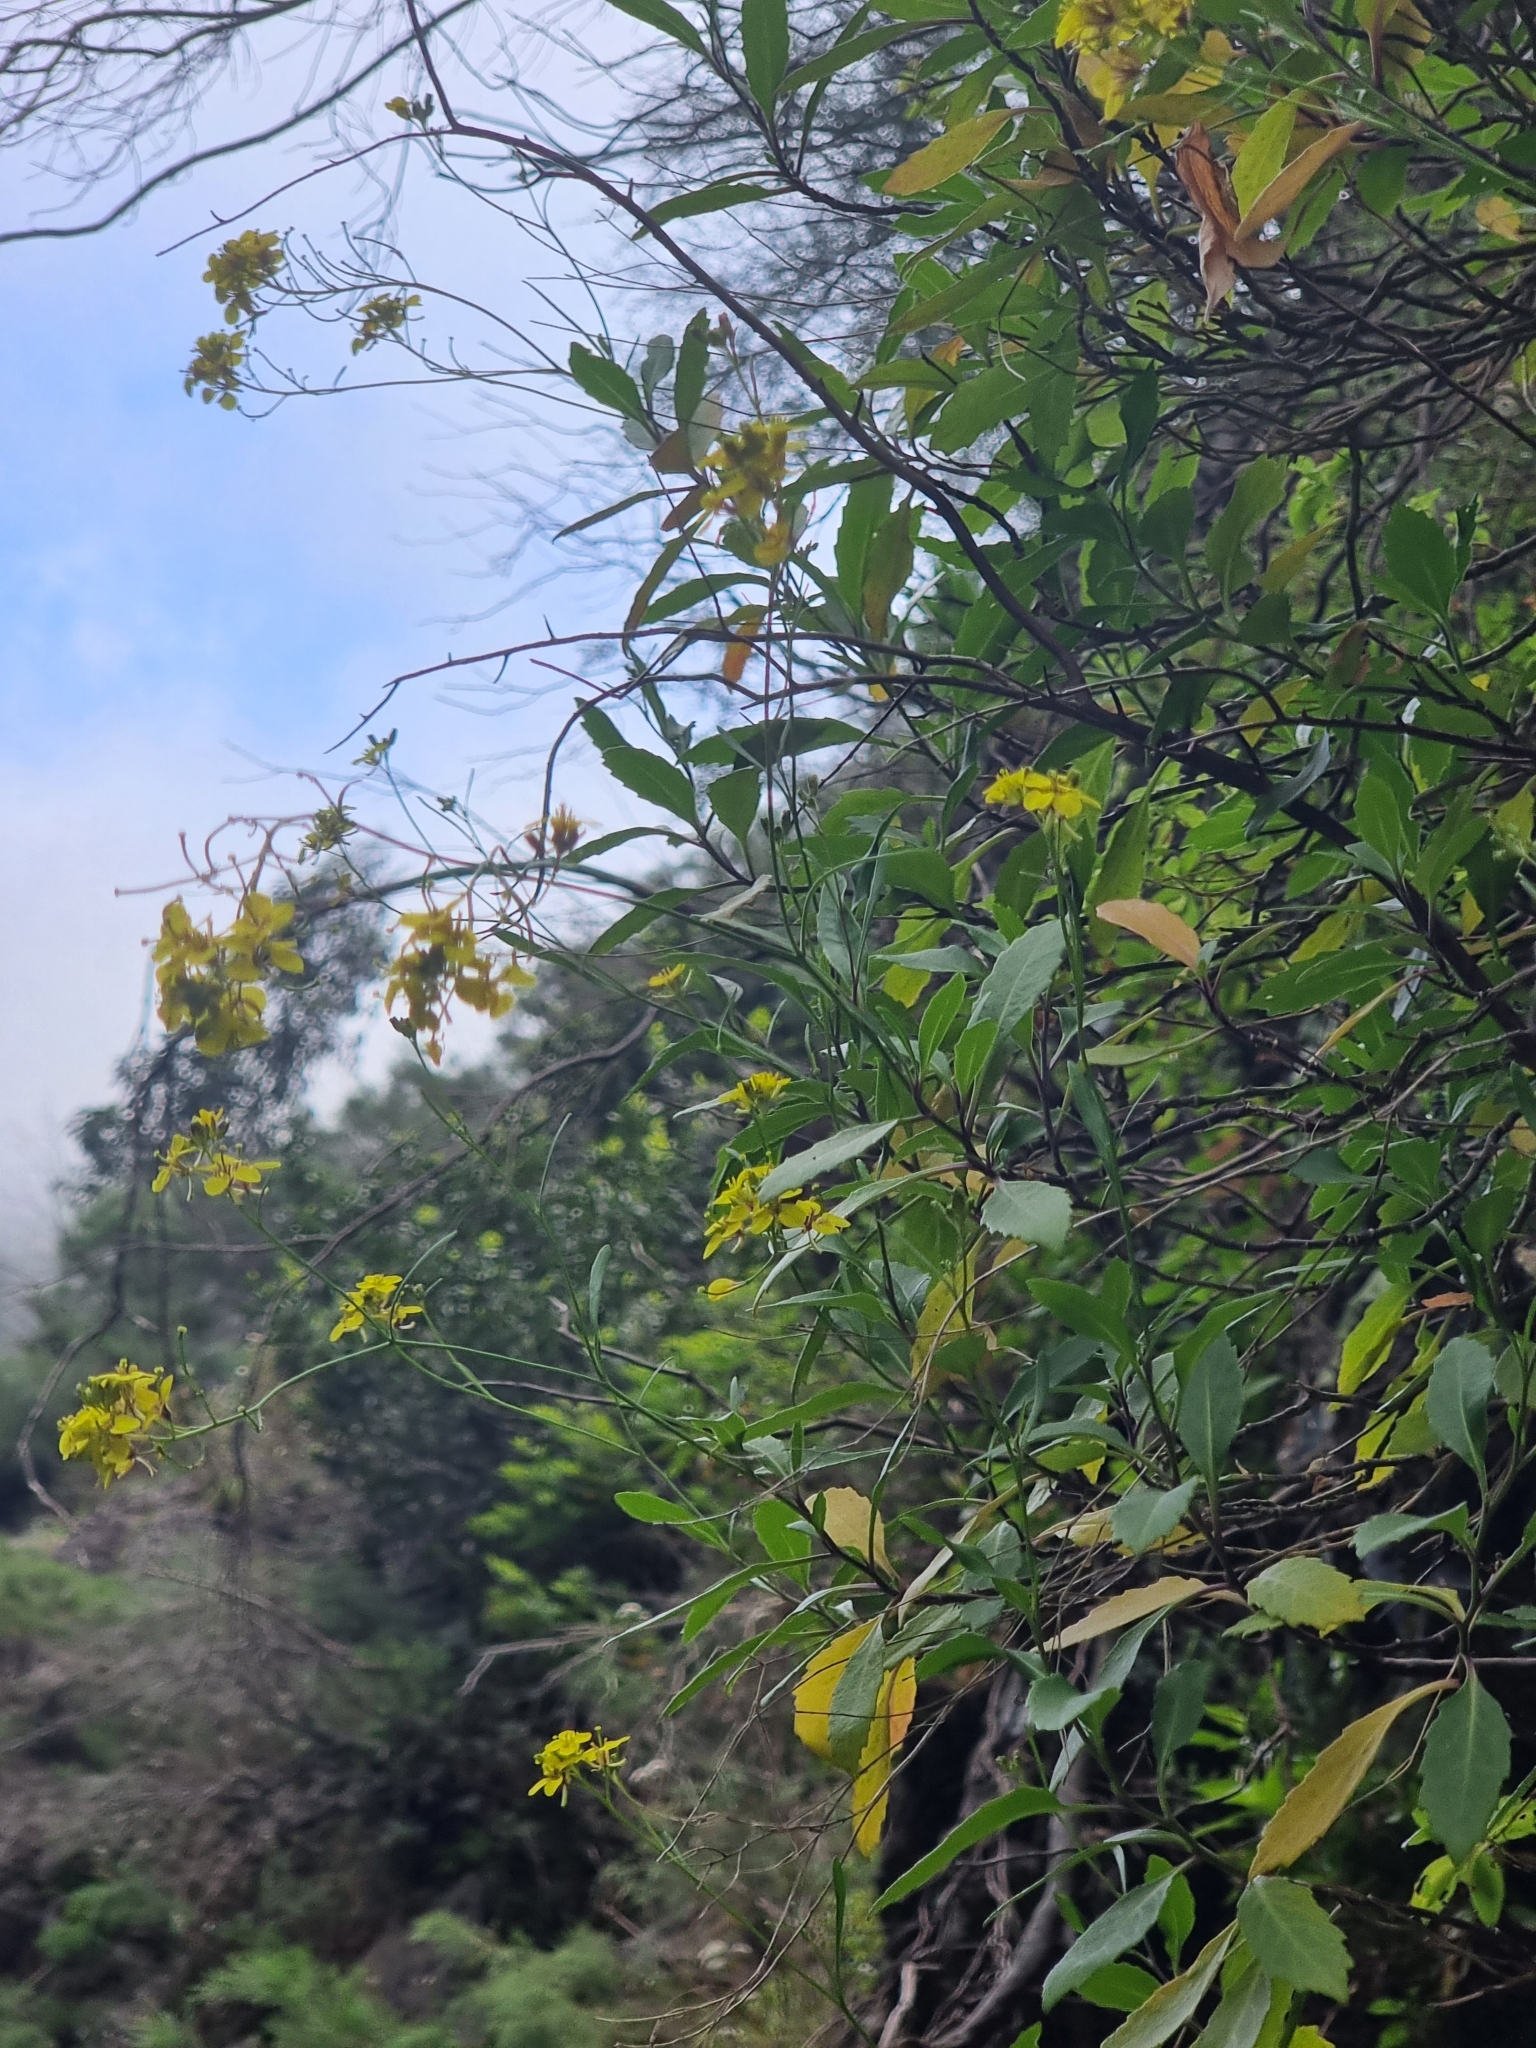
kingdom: Plantae
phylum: Tracheophyta
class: Magnoliopsida
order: Brassicales
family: Brassicaceae
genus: Sinapidendron
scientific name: Sinapidendron frutescens
